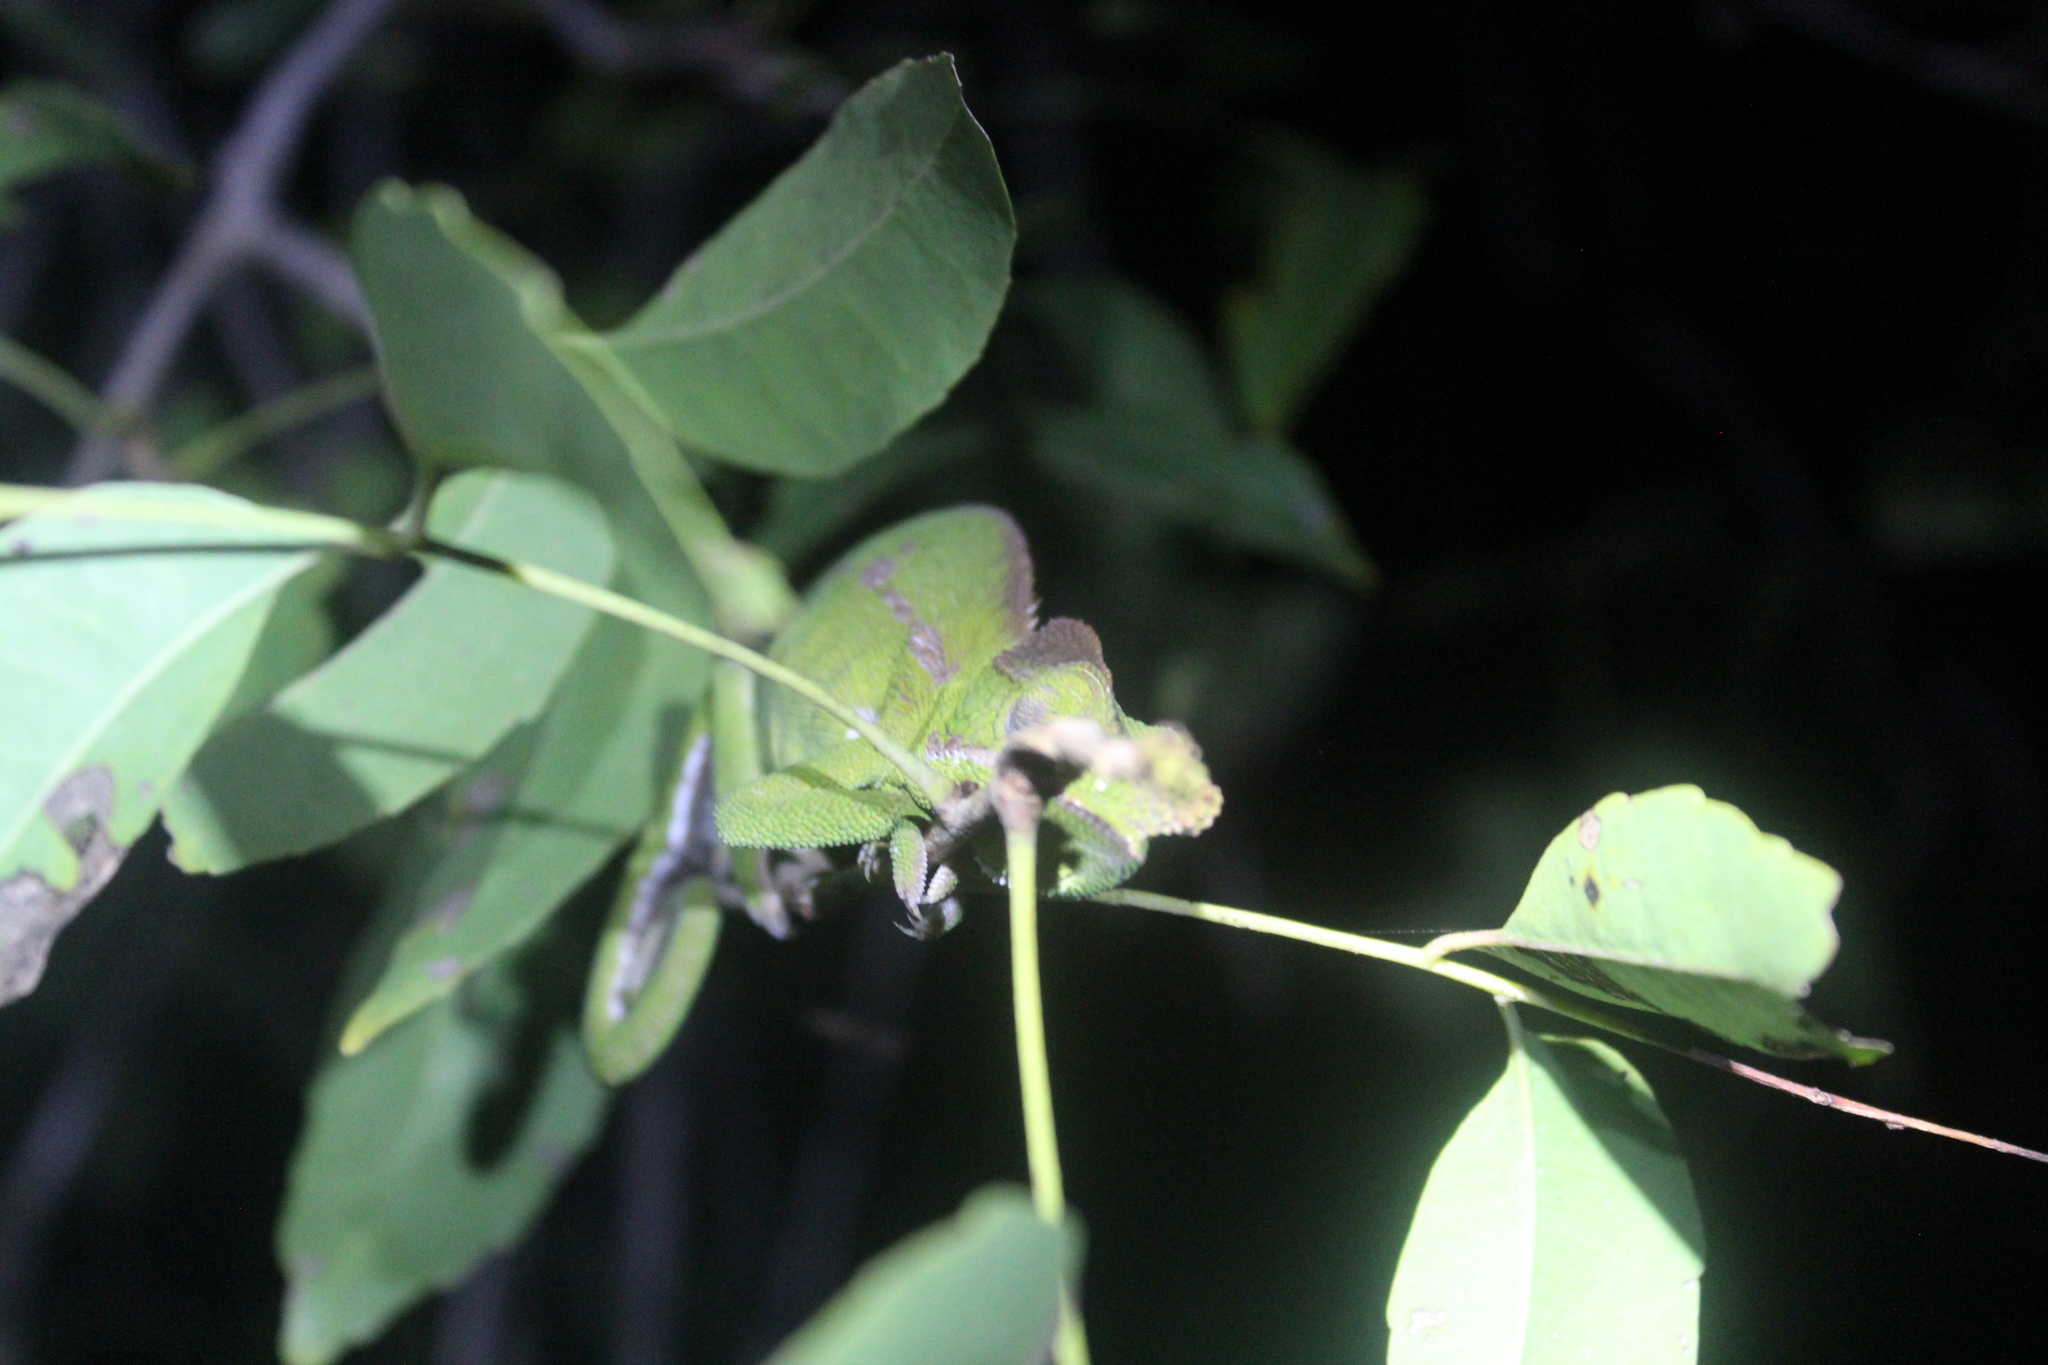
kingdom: Animalia
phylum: Chordata
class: Squamata
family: Chamaeleonidae
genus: Furcifer
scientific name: Furcifer antimena
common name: Antimena chameleon
